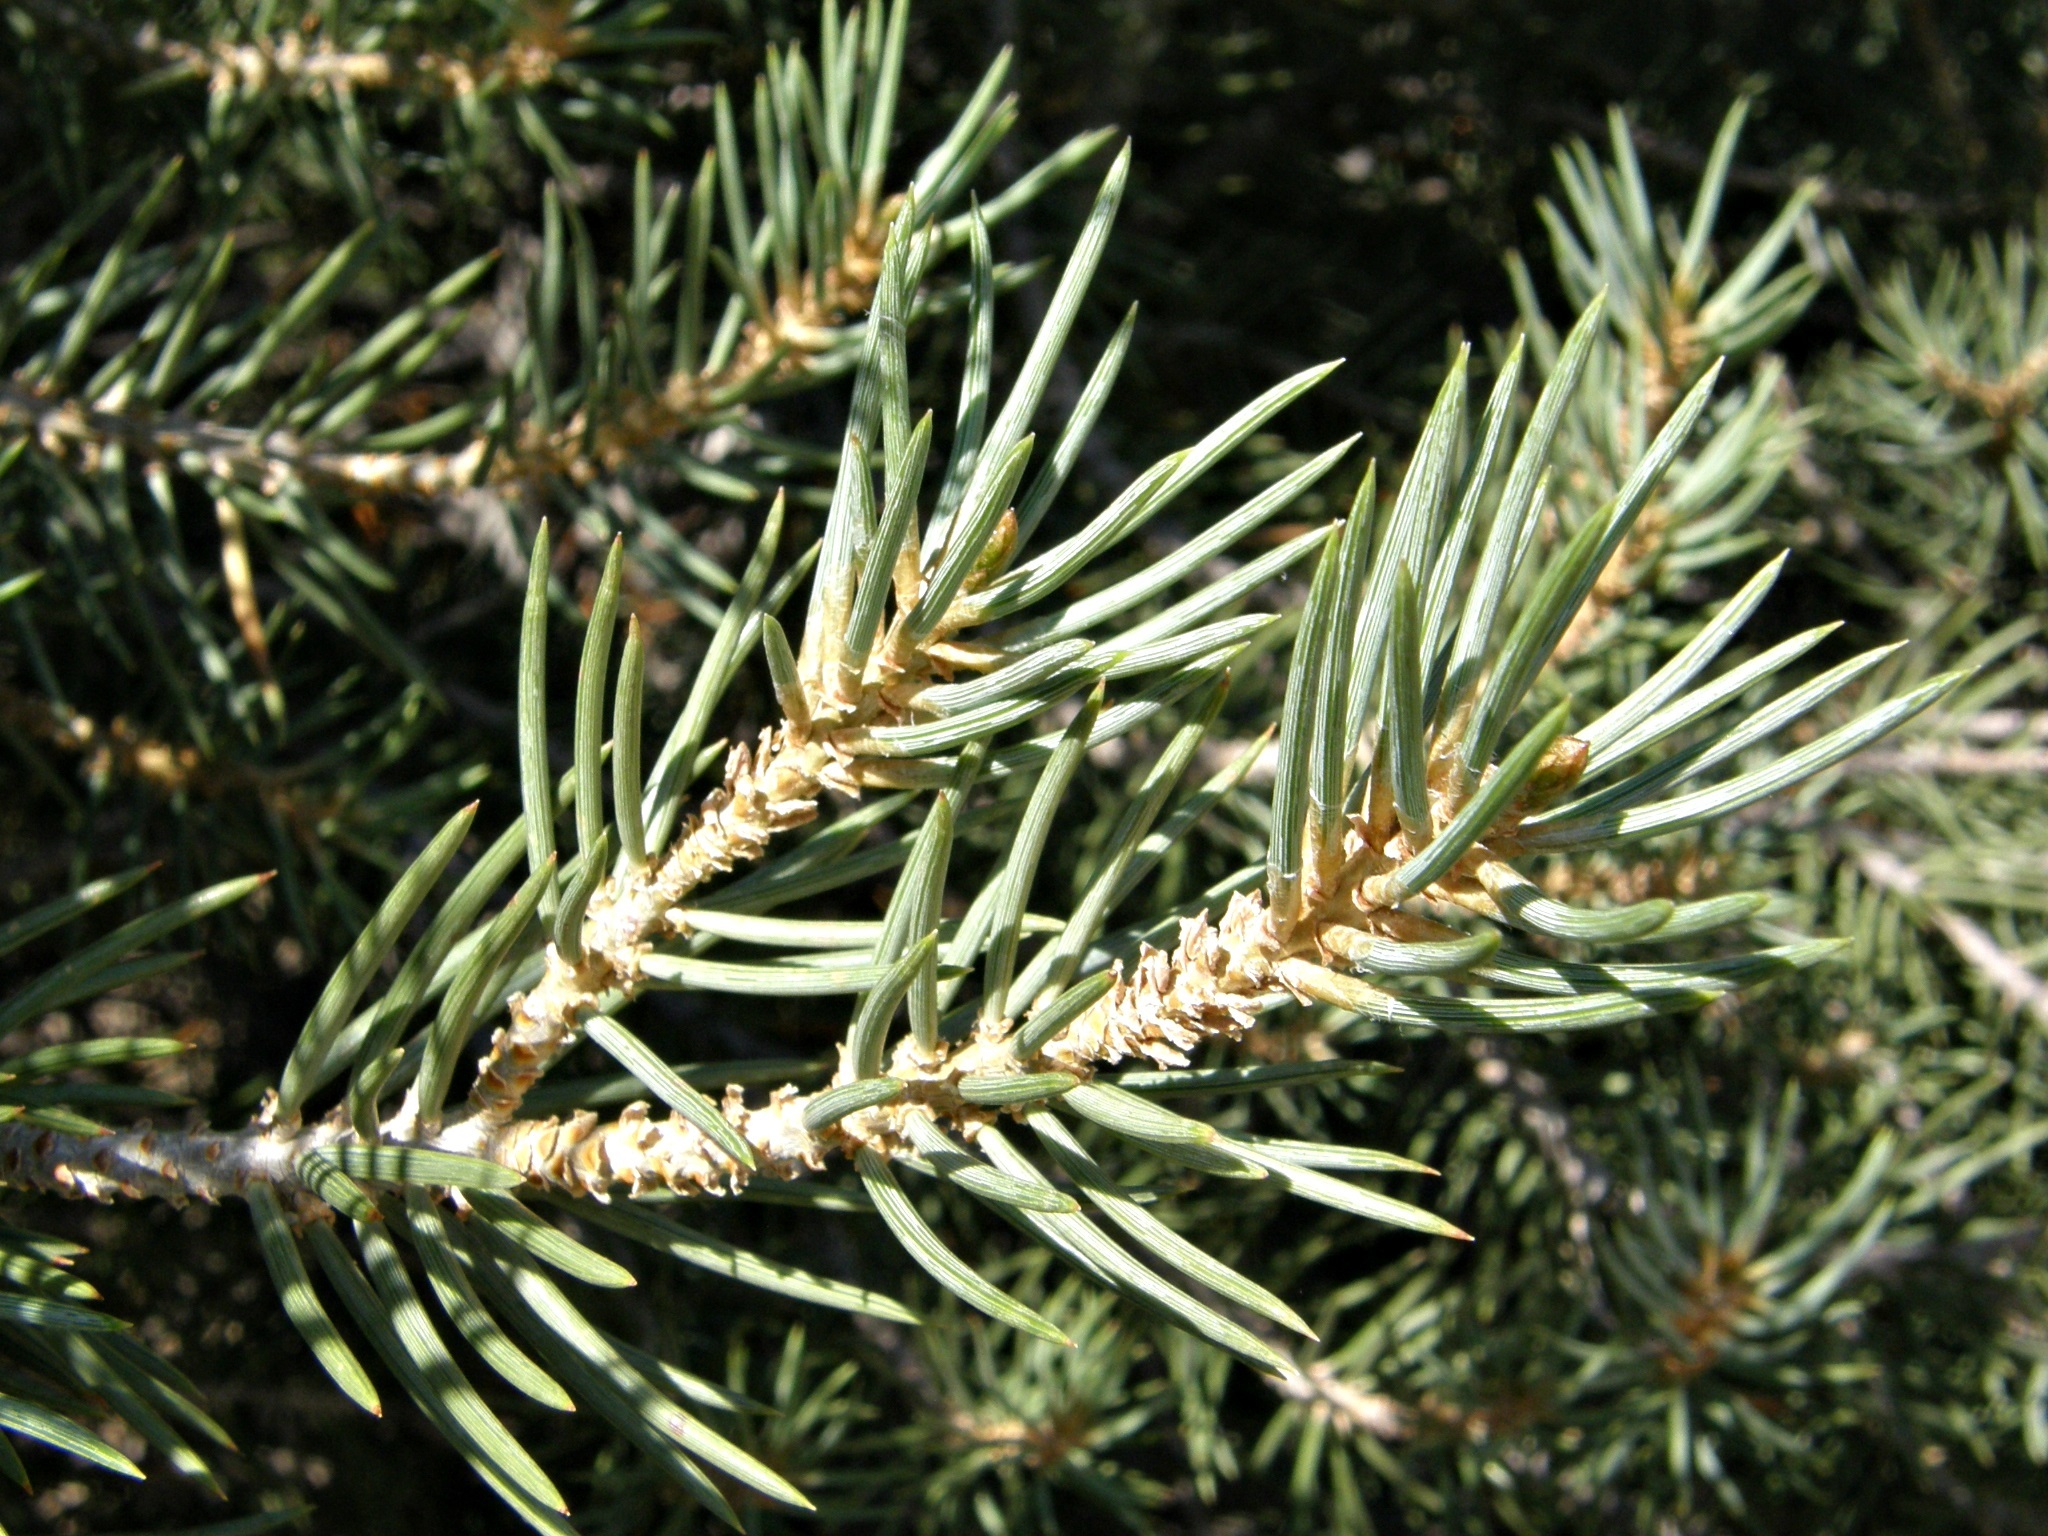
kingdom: Plantae
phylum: Tracheophyta
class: Pinopsida
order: Pinales
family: Pinaceae
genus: Pinus
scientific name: Pinus monophylla
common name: One-leaved nut pine
